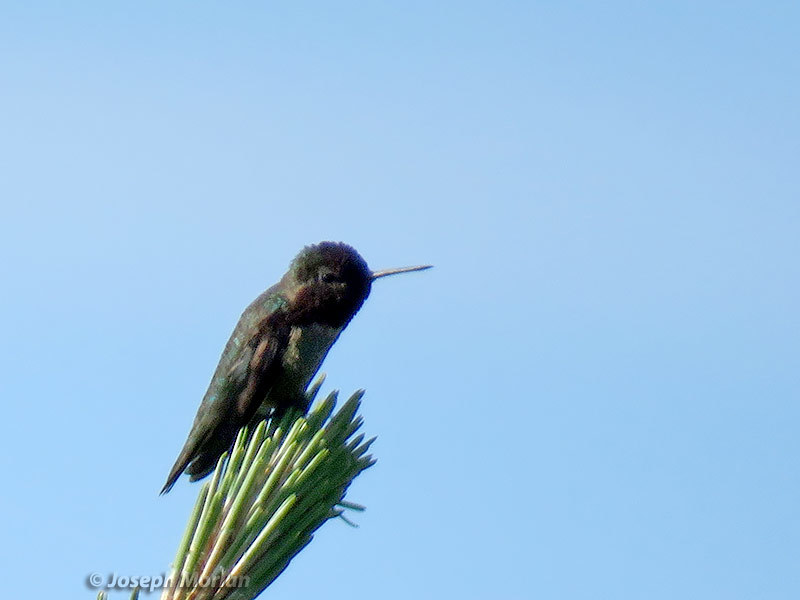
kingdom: Animalia
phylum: Chordata
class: Aves
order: Apodiformes
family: Trochilidae
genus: Calypte
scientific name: Calypte anna
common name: Anna's hummingbird
